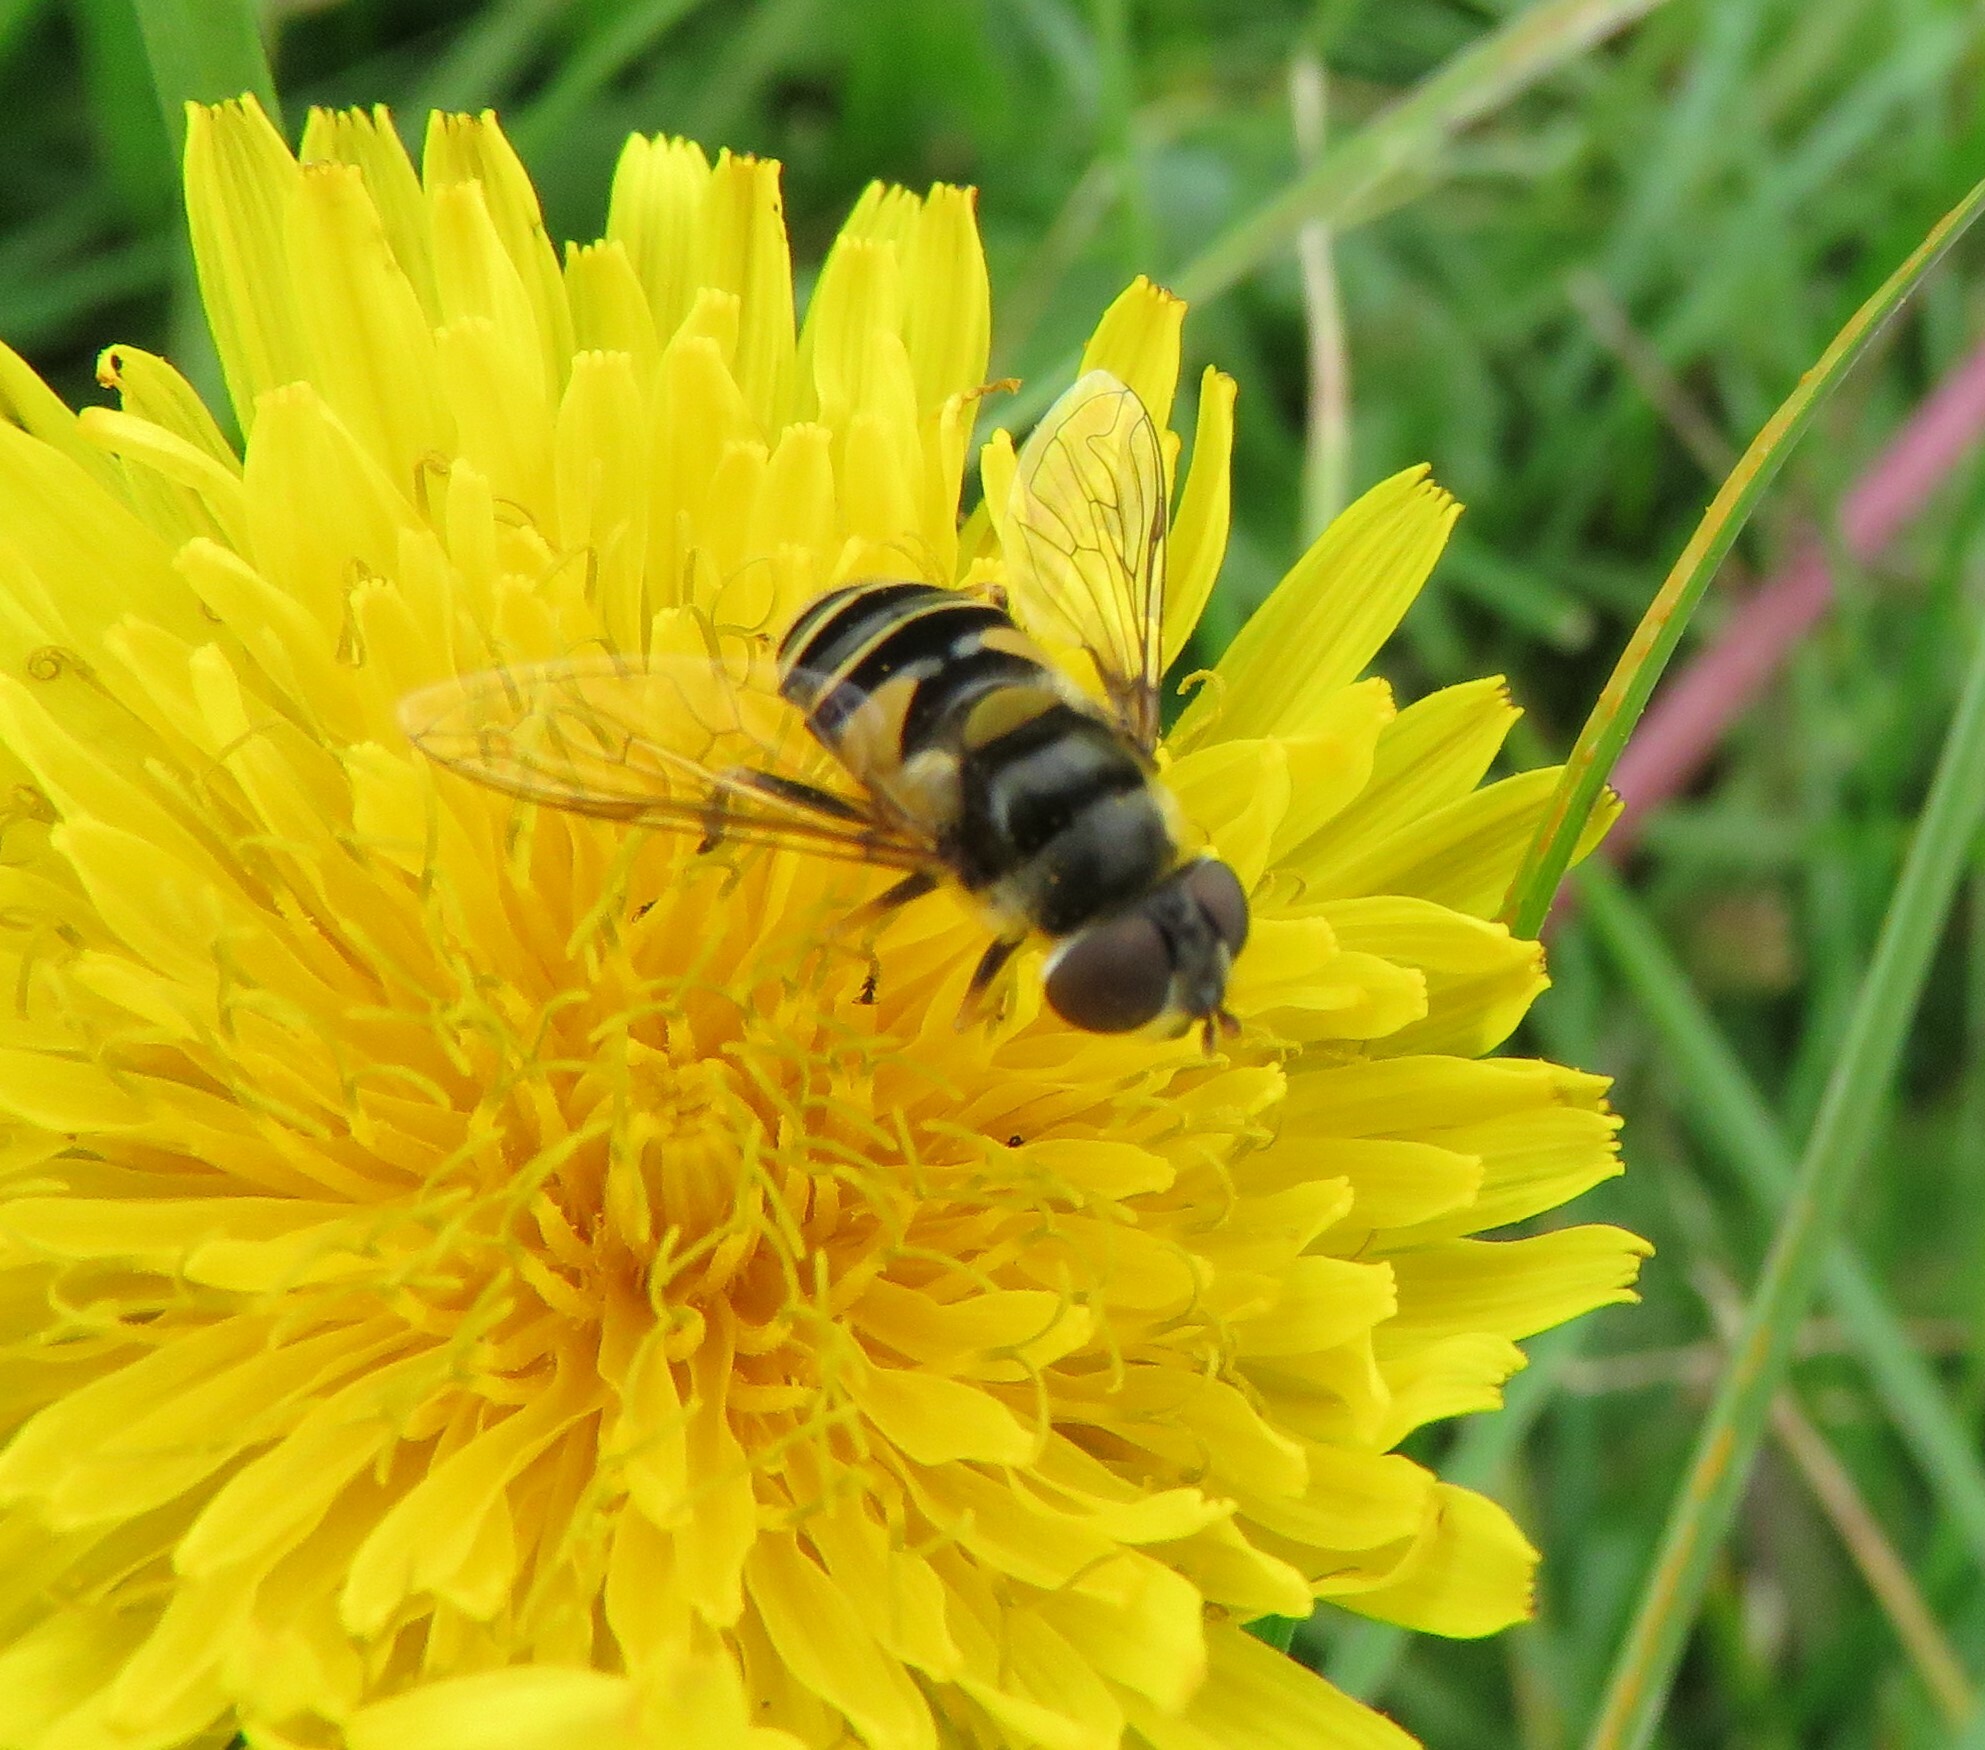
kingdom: Animalia
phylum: Arthropoda
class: Insecta
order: Diptera
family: Syrphidae
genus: Eristalis
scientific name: Eristalis transversa
